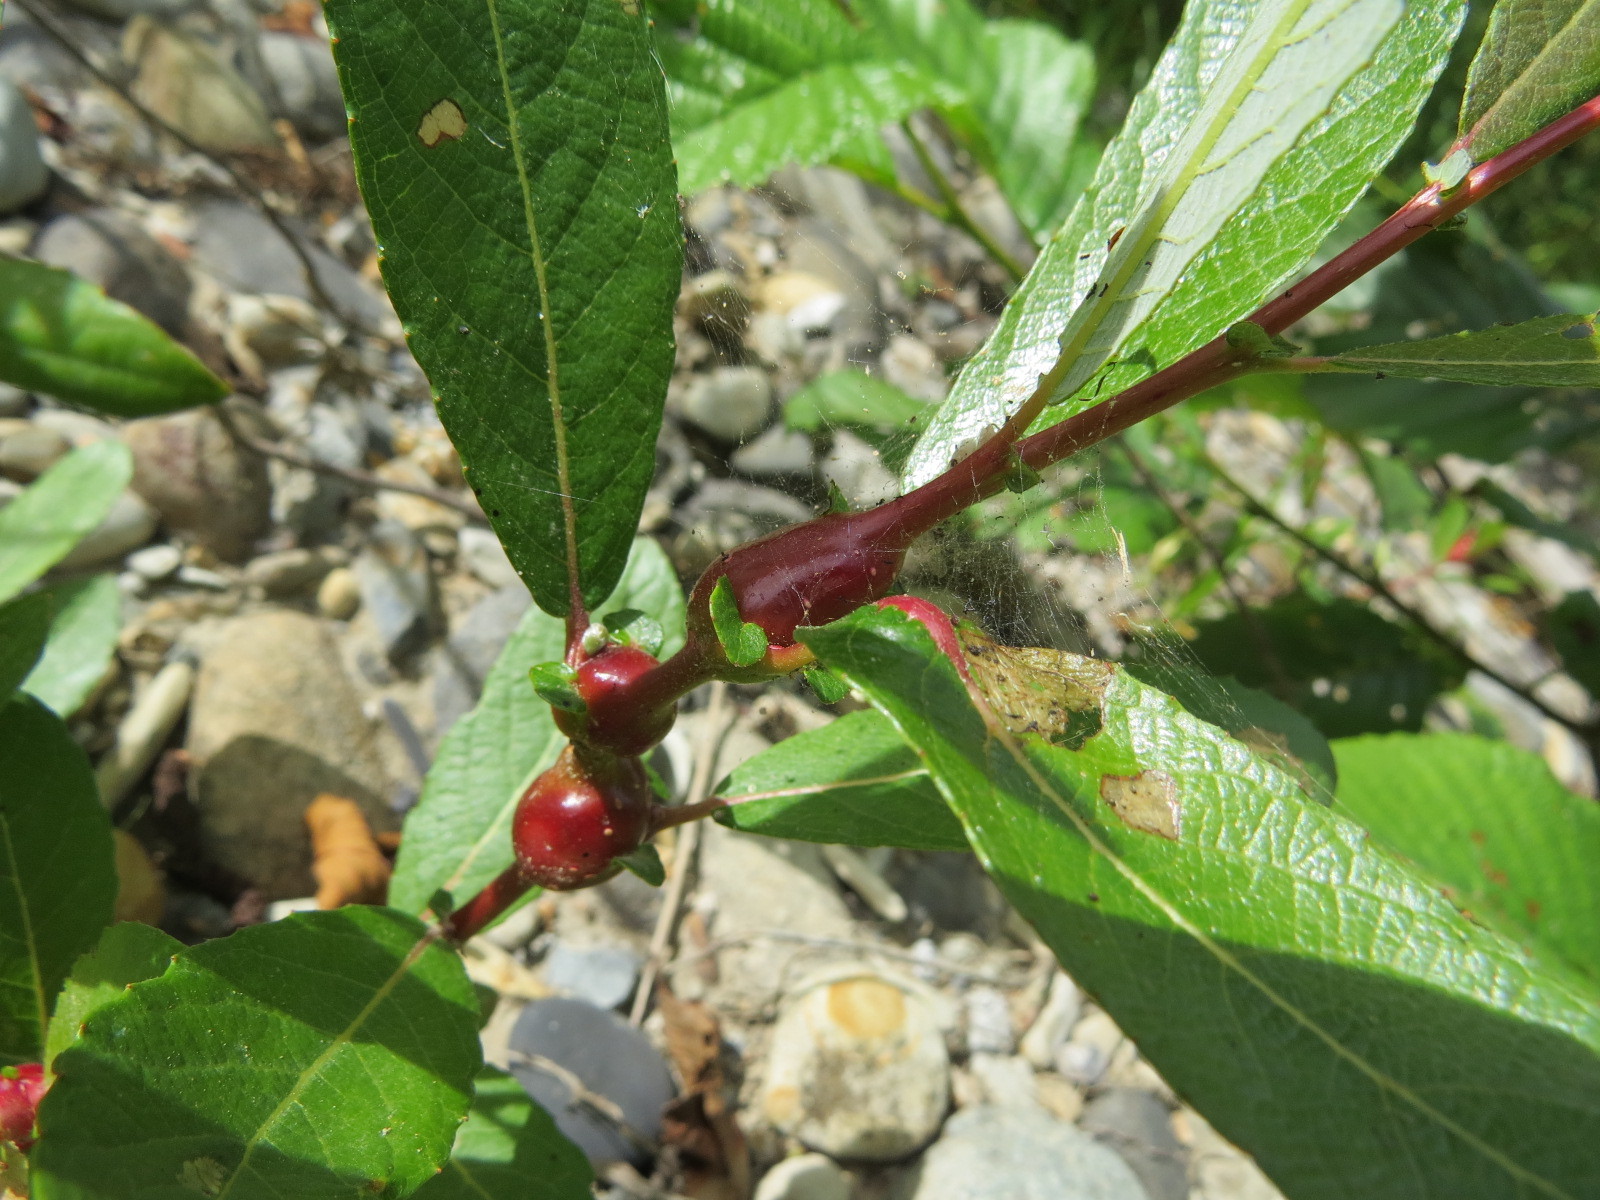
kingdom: Animalia
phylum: Arthropoda
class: Insecta
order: Diptera
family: Cecidomyiidae
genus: Rabdophaga
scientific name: Rabdophaga salicisbatatas
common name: Potato gall midge
